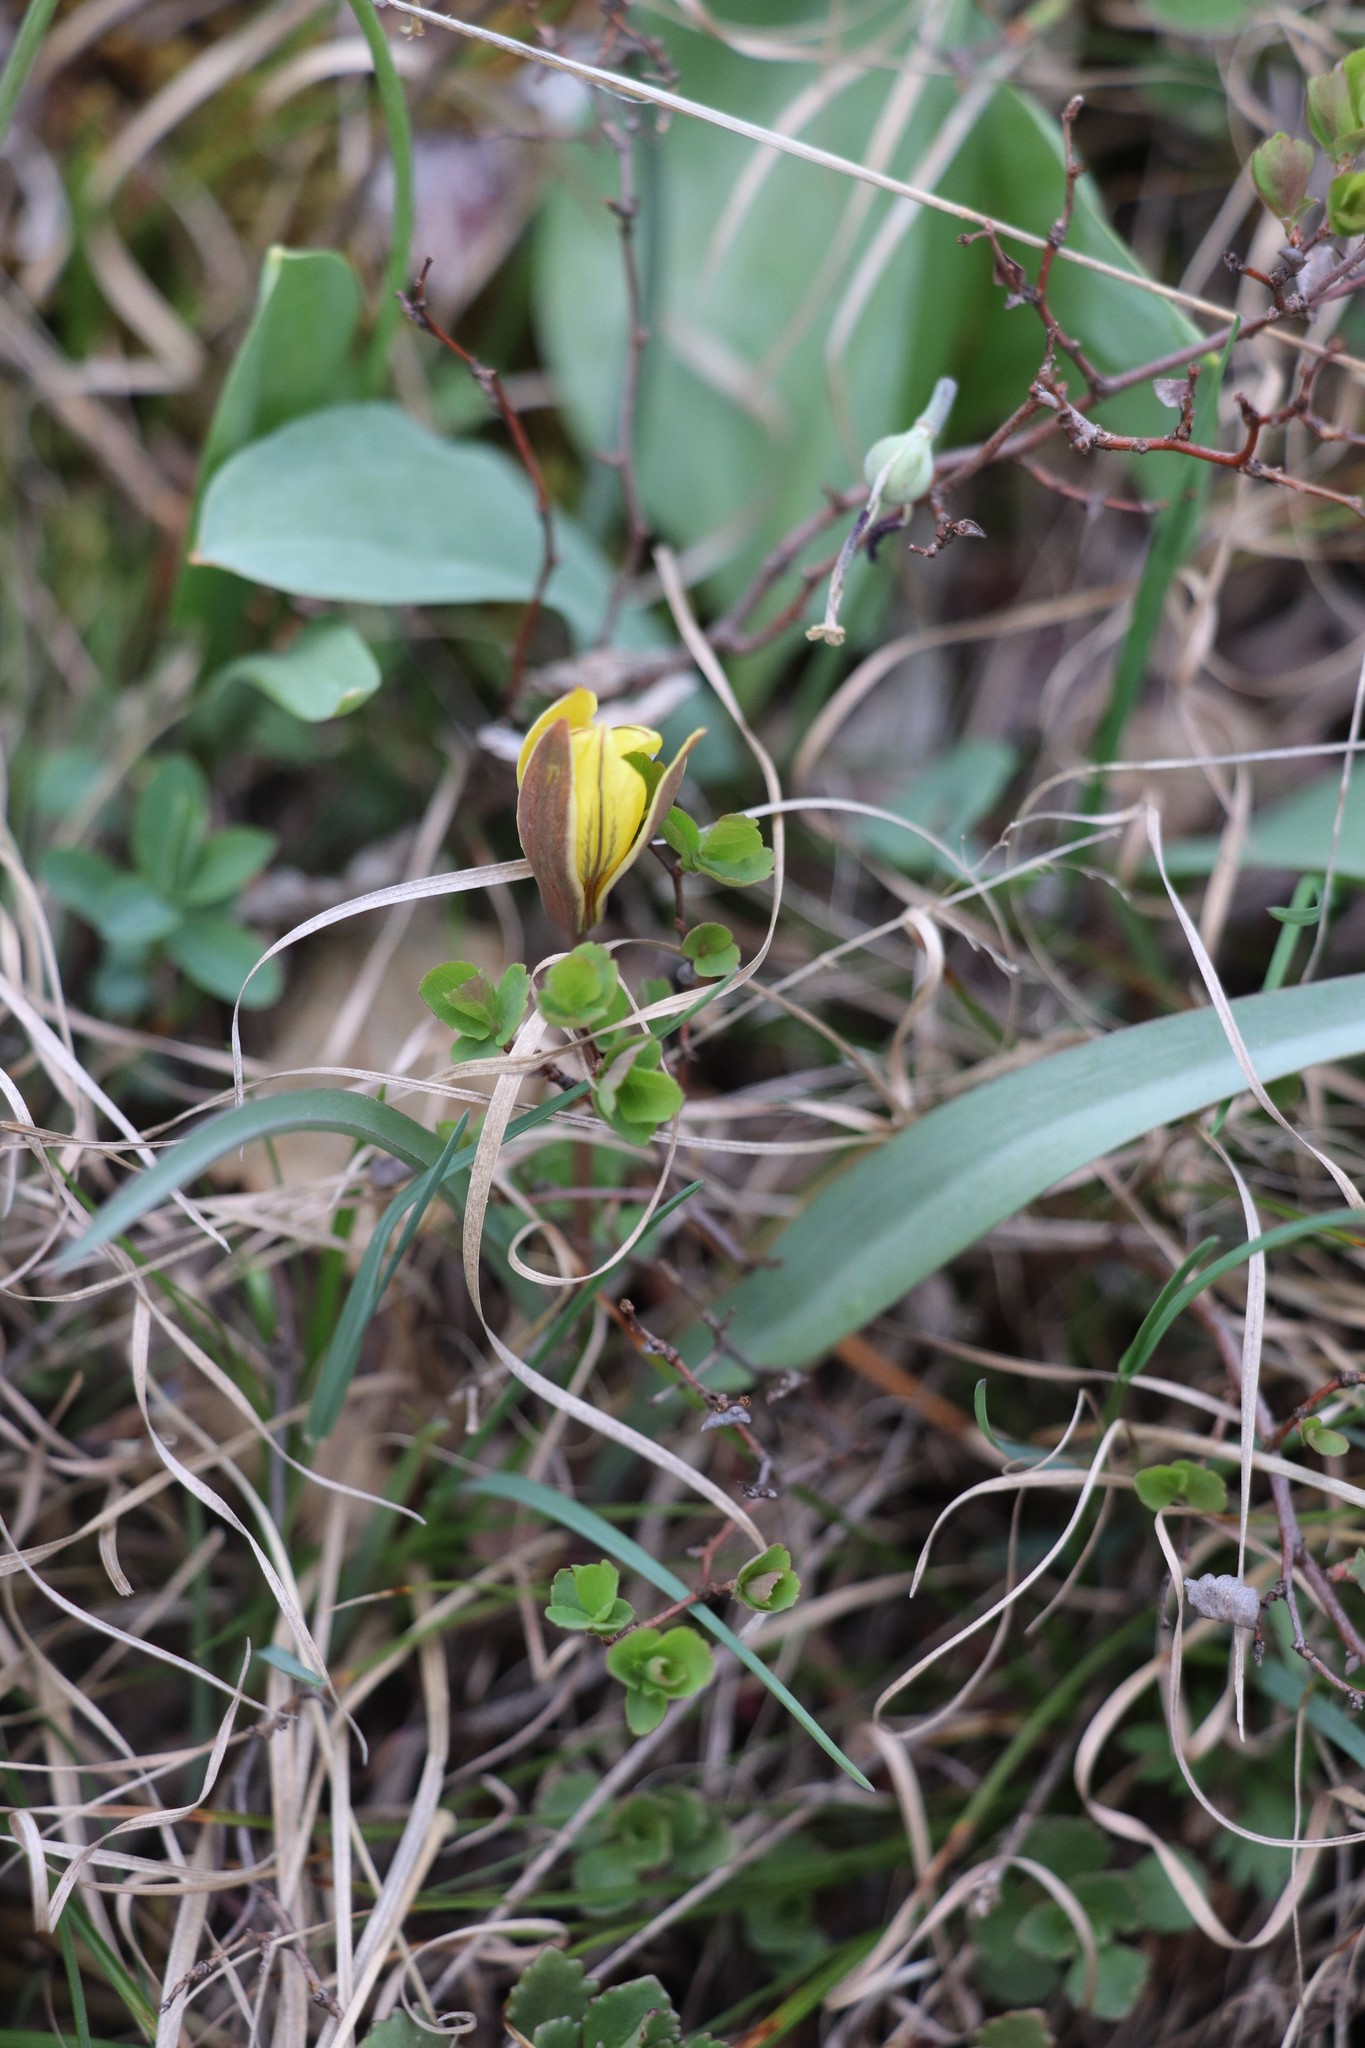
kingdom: Plantae
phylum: Tracheophyta
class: Liliopsida
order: Liliales
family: Liliaceae
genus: Tulipa
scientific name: Tulipa uniflora
